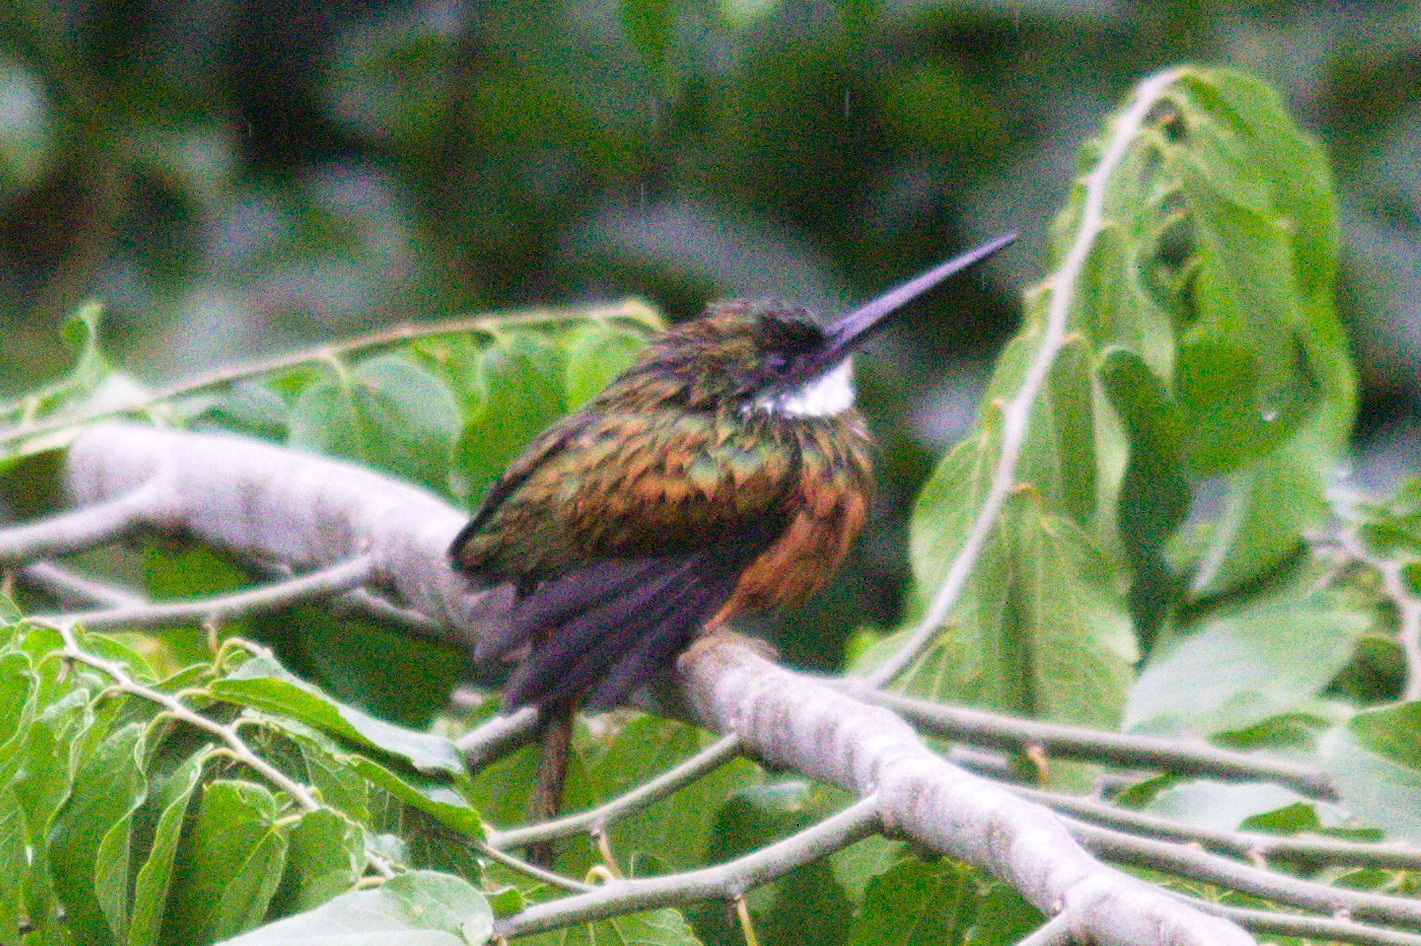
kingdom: Animalia
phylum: Chordata
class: Aves
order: Piciformes
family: Galbulidae
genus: Galbula
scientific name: Galbula ruficauda
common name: Rufous-tailed jacamar
